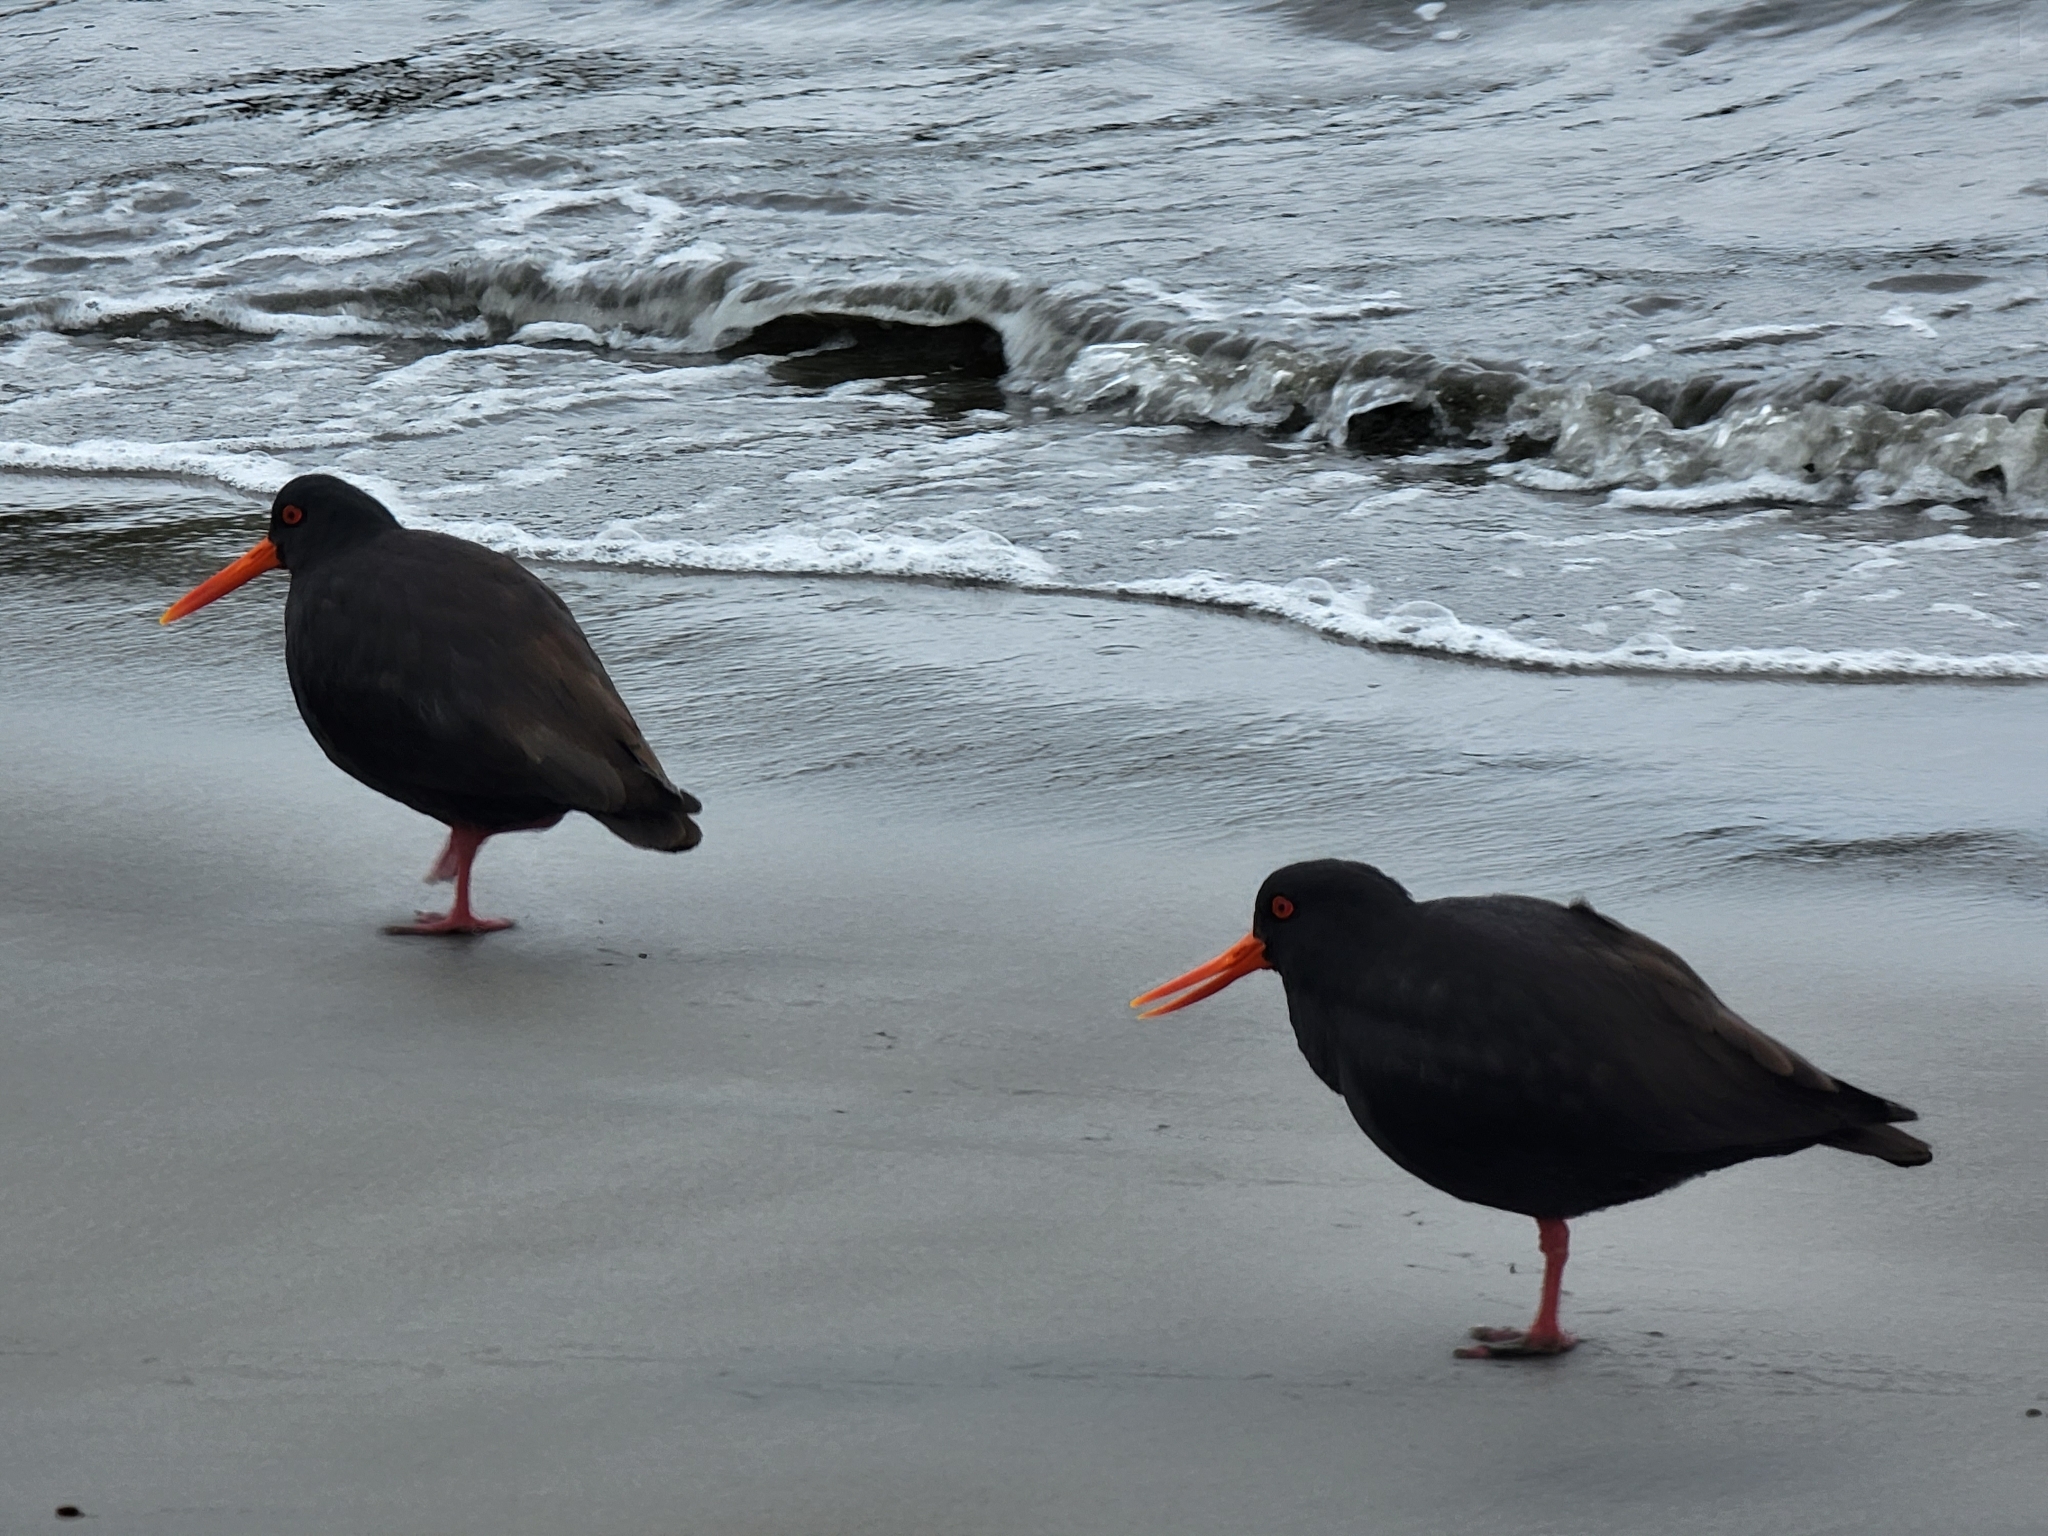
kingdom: Animalia
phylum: Chordata
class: Aves
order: Charadriiformes
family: Haematopodidae
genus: Haematopus
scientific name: Haematopus unicolor
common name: Variable oystercatcher
